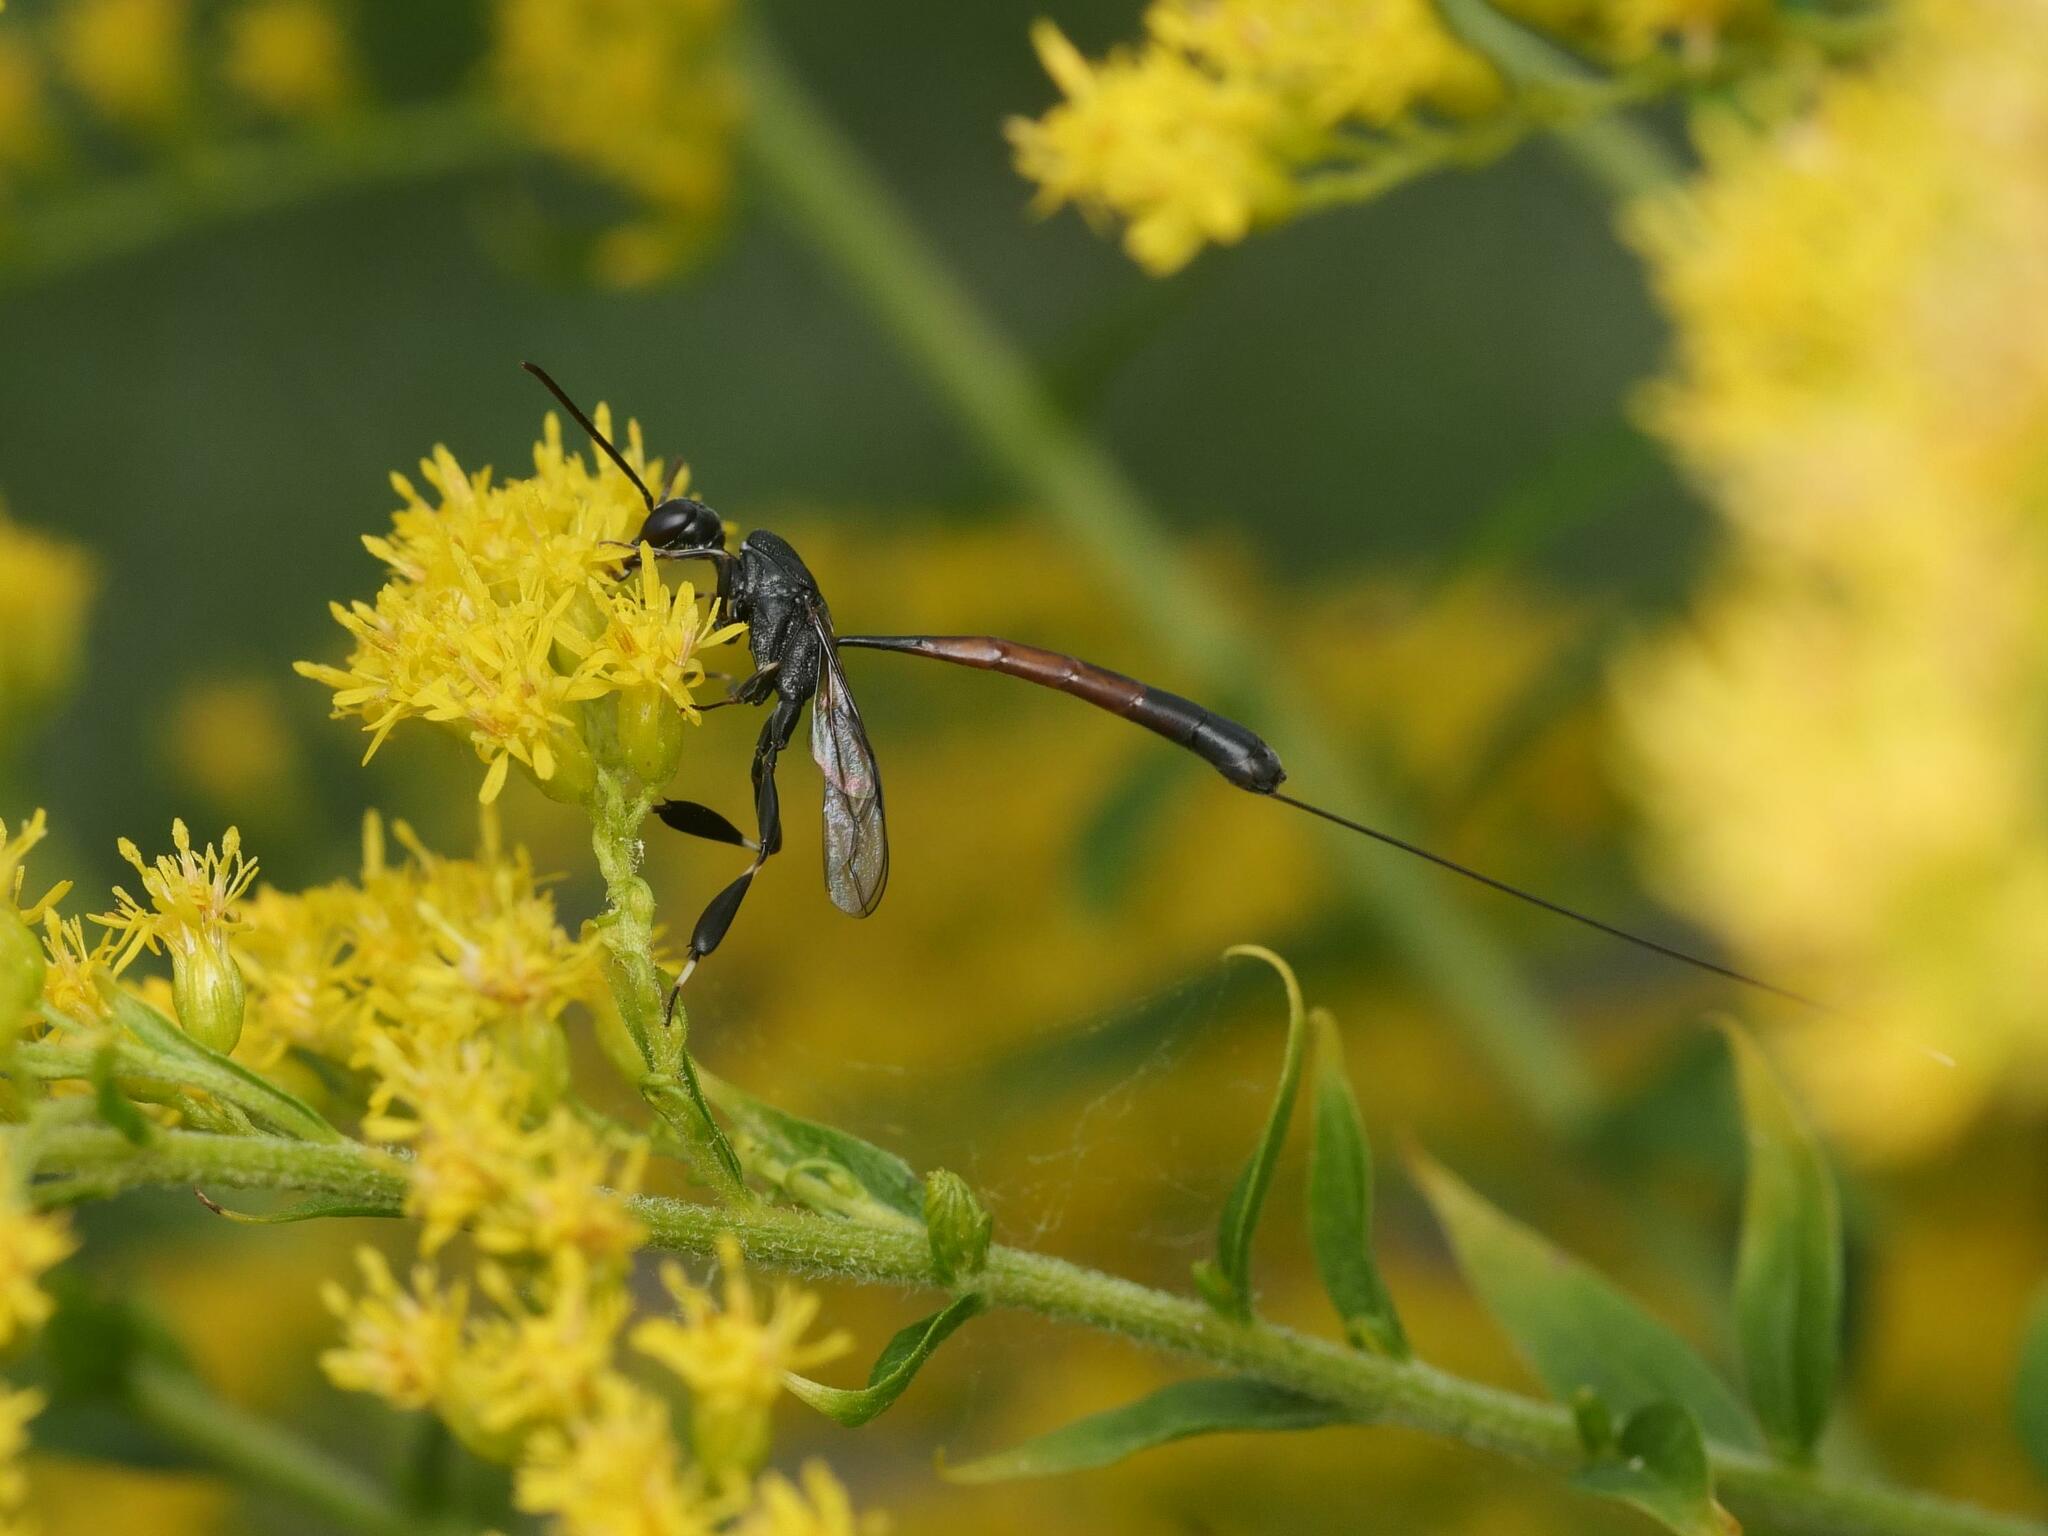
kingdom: Animalia
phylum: Arthropoda
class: Insecta
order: Hymenoptera
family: Gasteruptiidae
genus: Gasteruption
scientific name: Gasteruption jaculator
